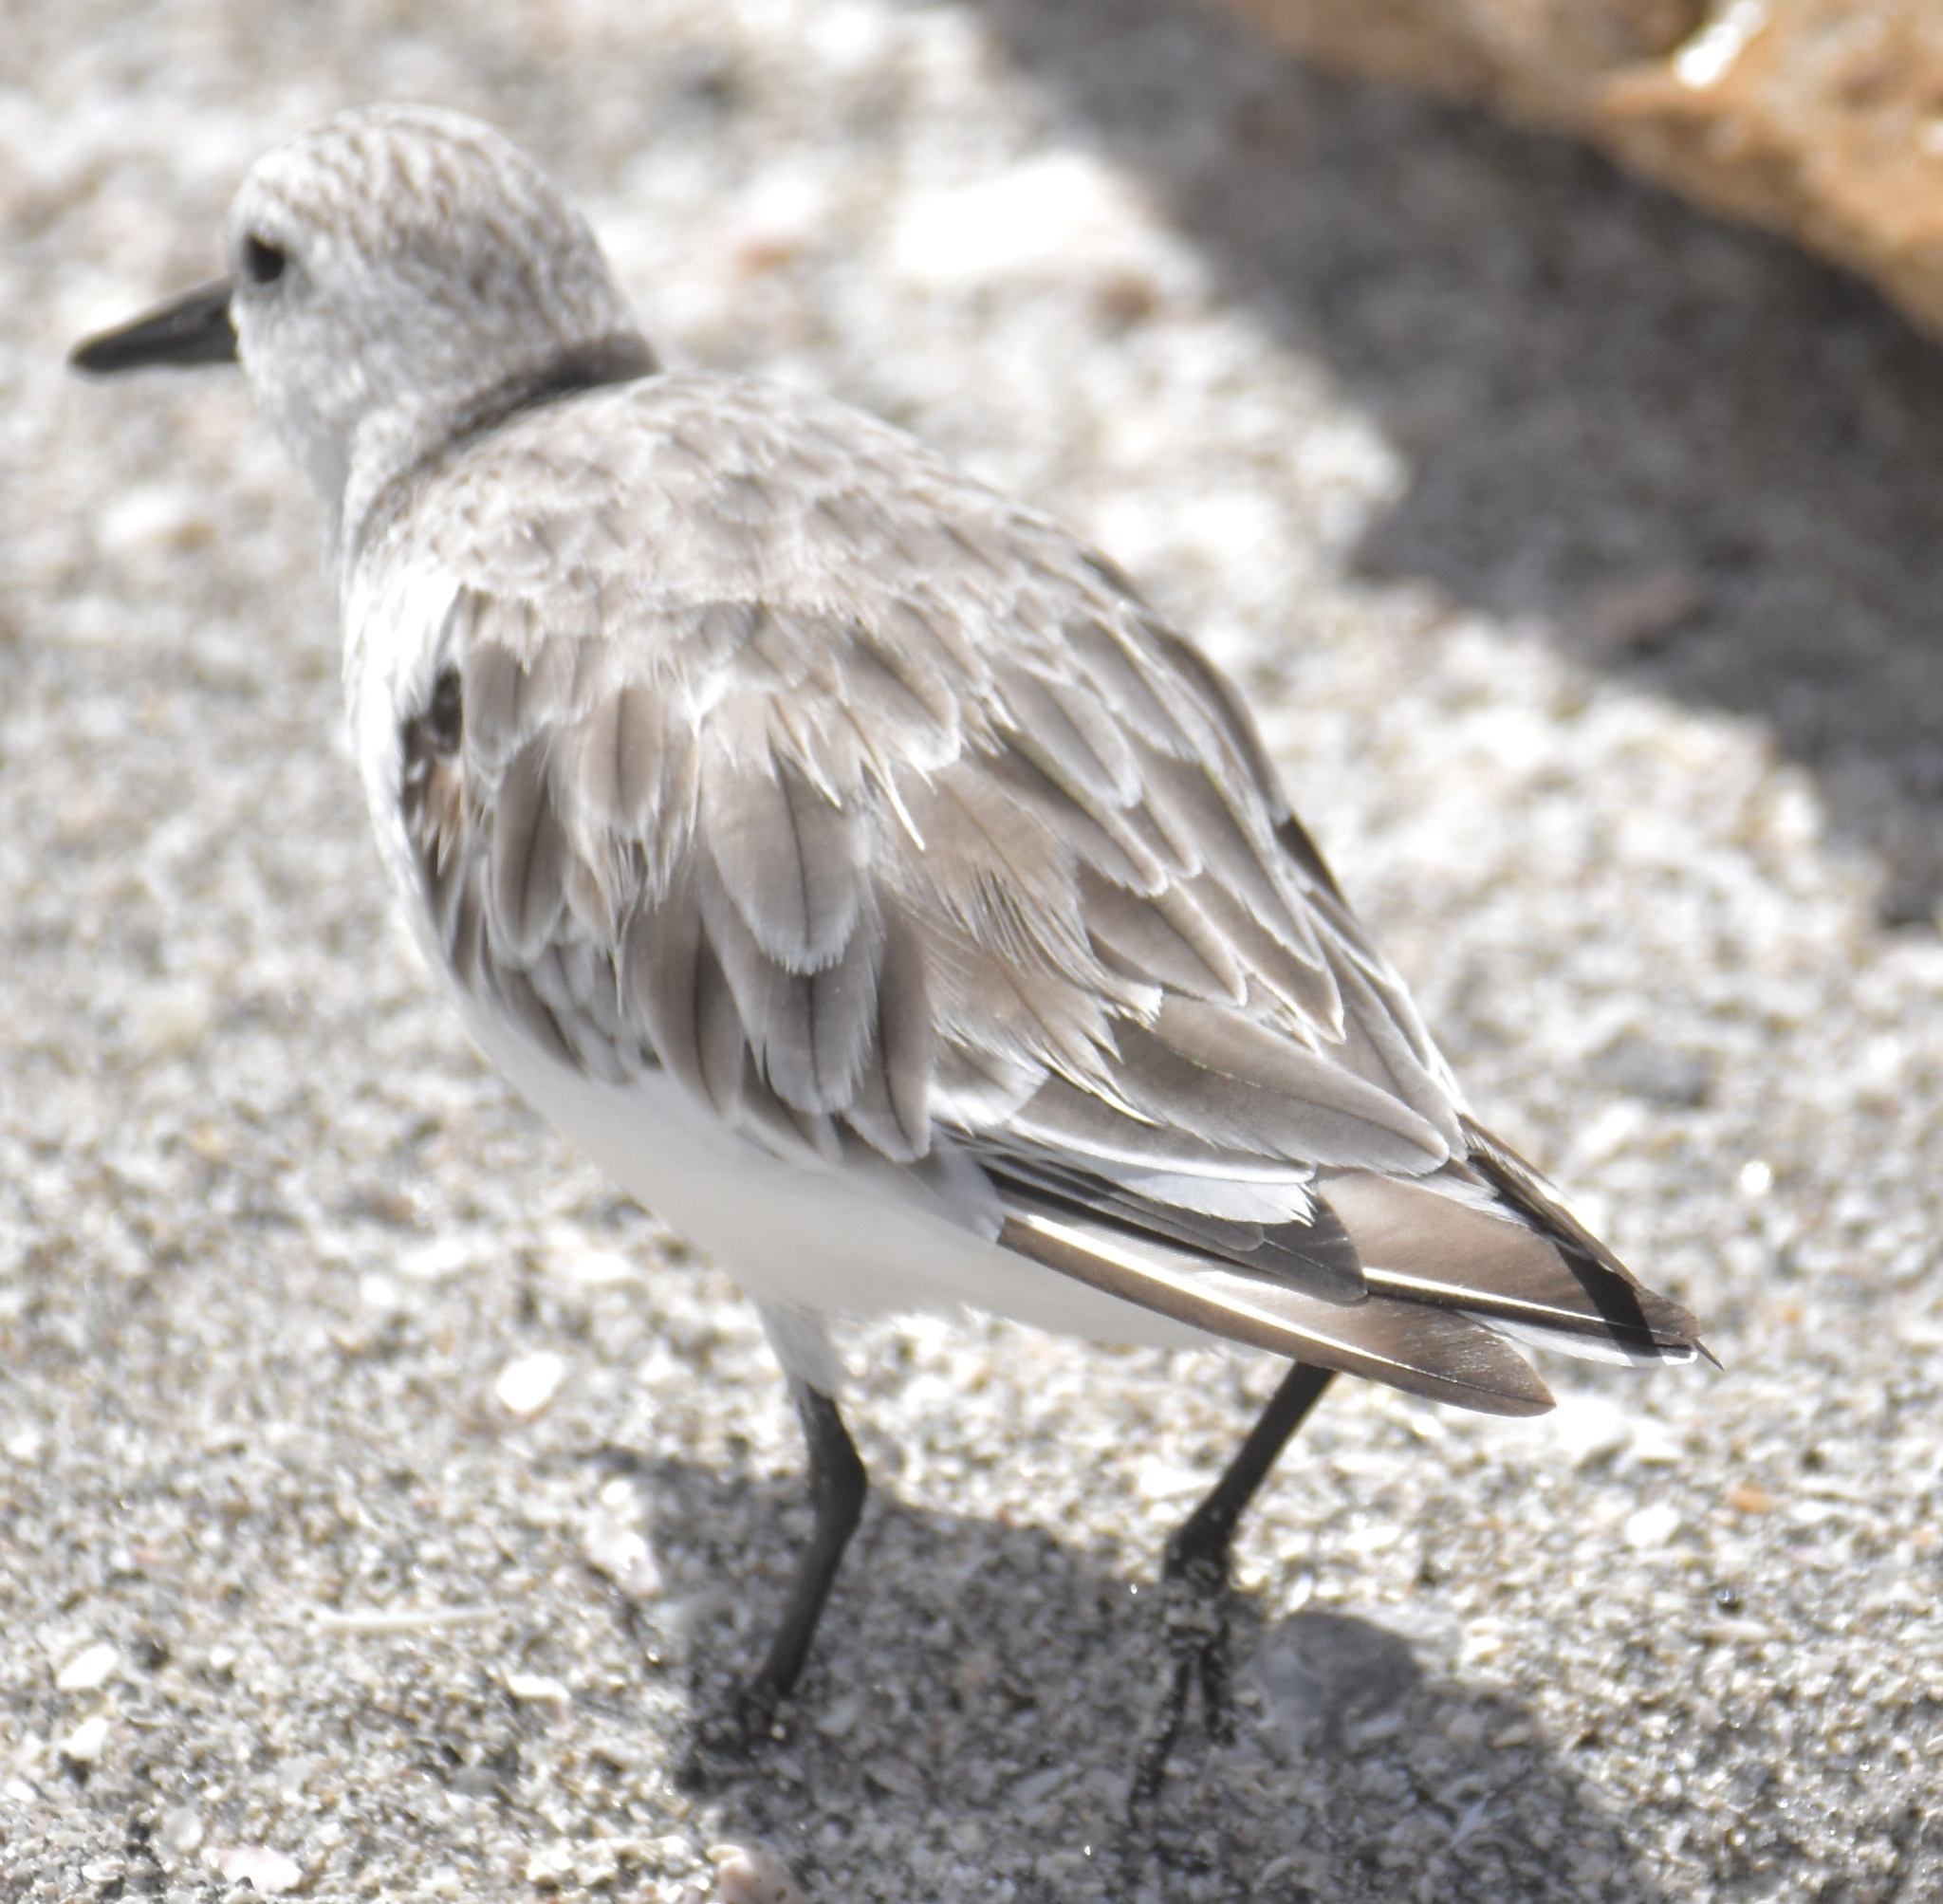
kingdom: Animalia
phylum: Chordata
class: Aves
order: Charadriiformes
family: Scolopacidae
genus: Calidris
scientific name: Calidris alba
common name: Sanderling
